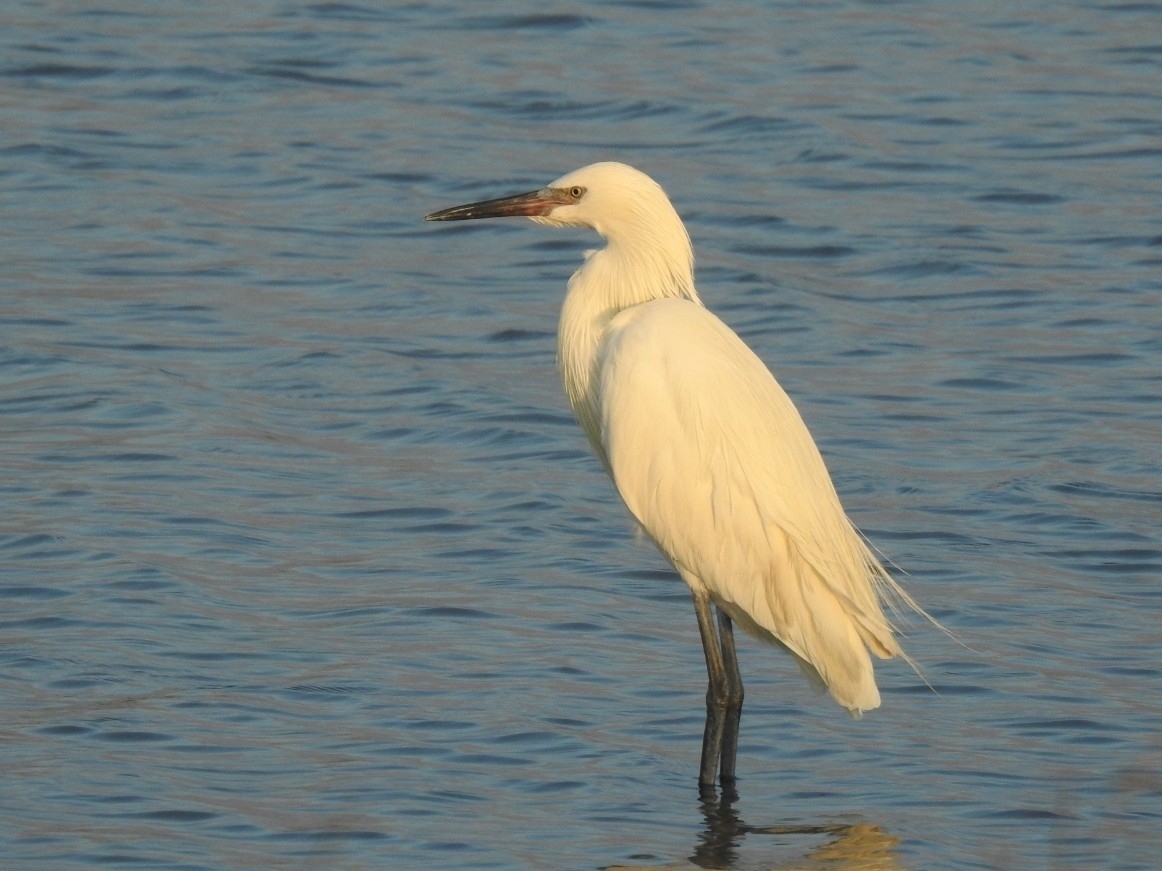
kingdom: Animalia
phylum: Chordata
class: Aves
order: Pelecaniformes
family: Ardeidae
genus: Egretta
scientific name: Egretta rufescens
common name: Reddish egret
